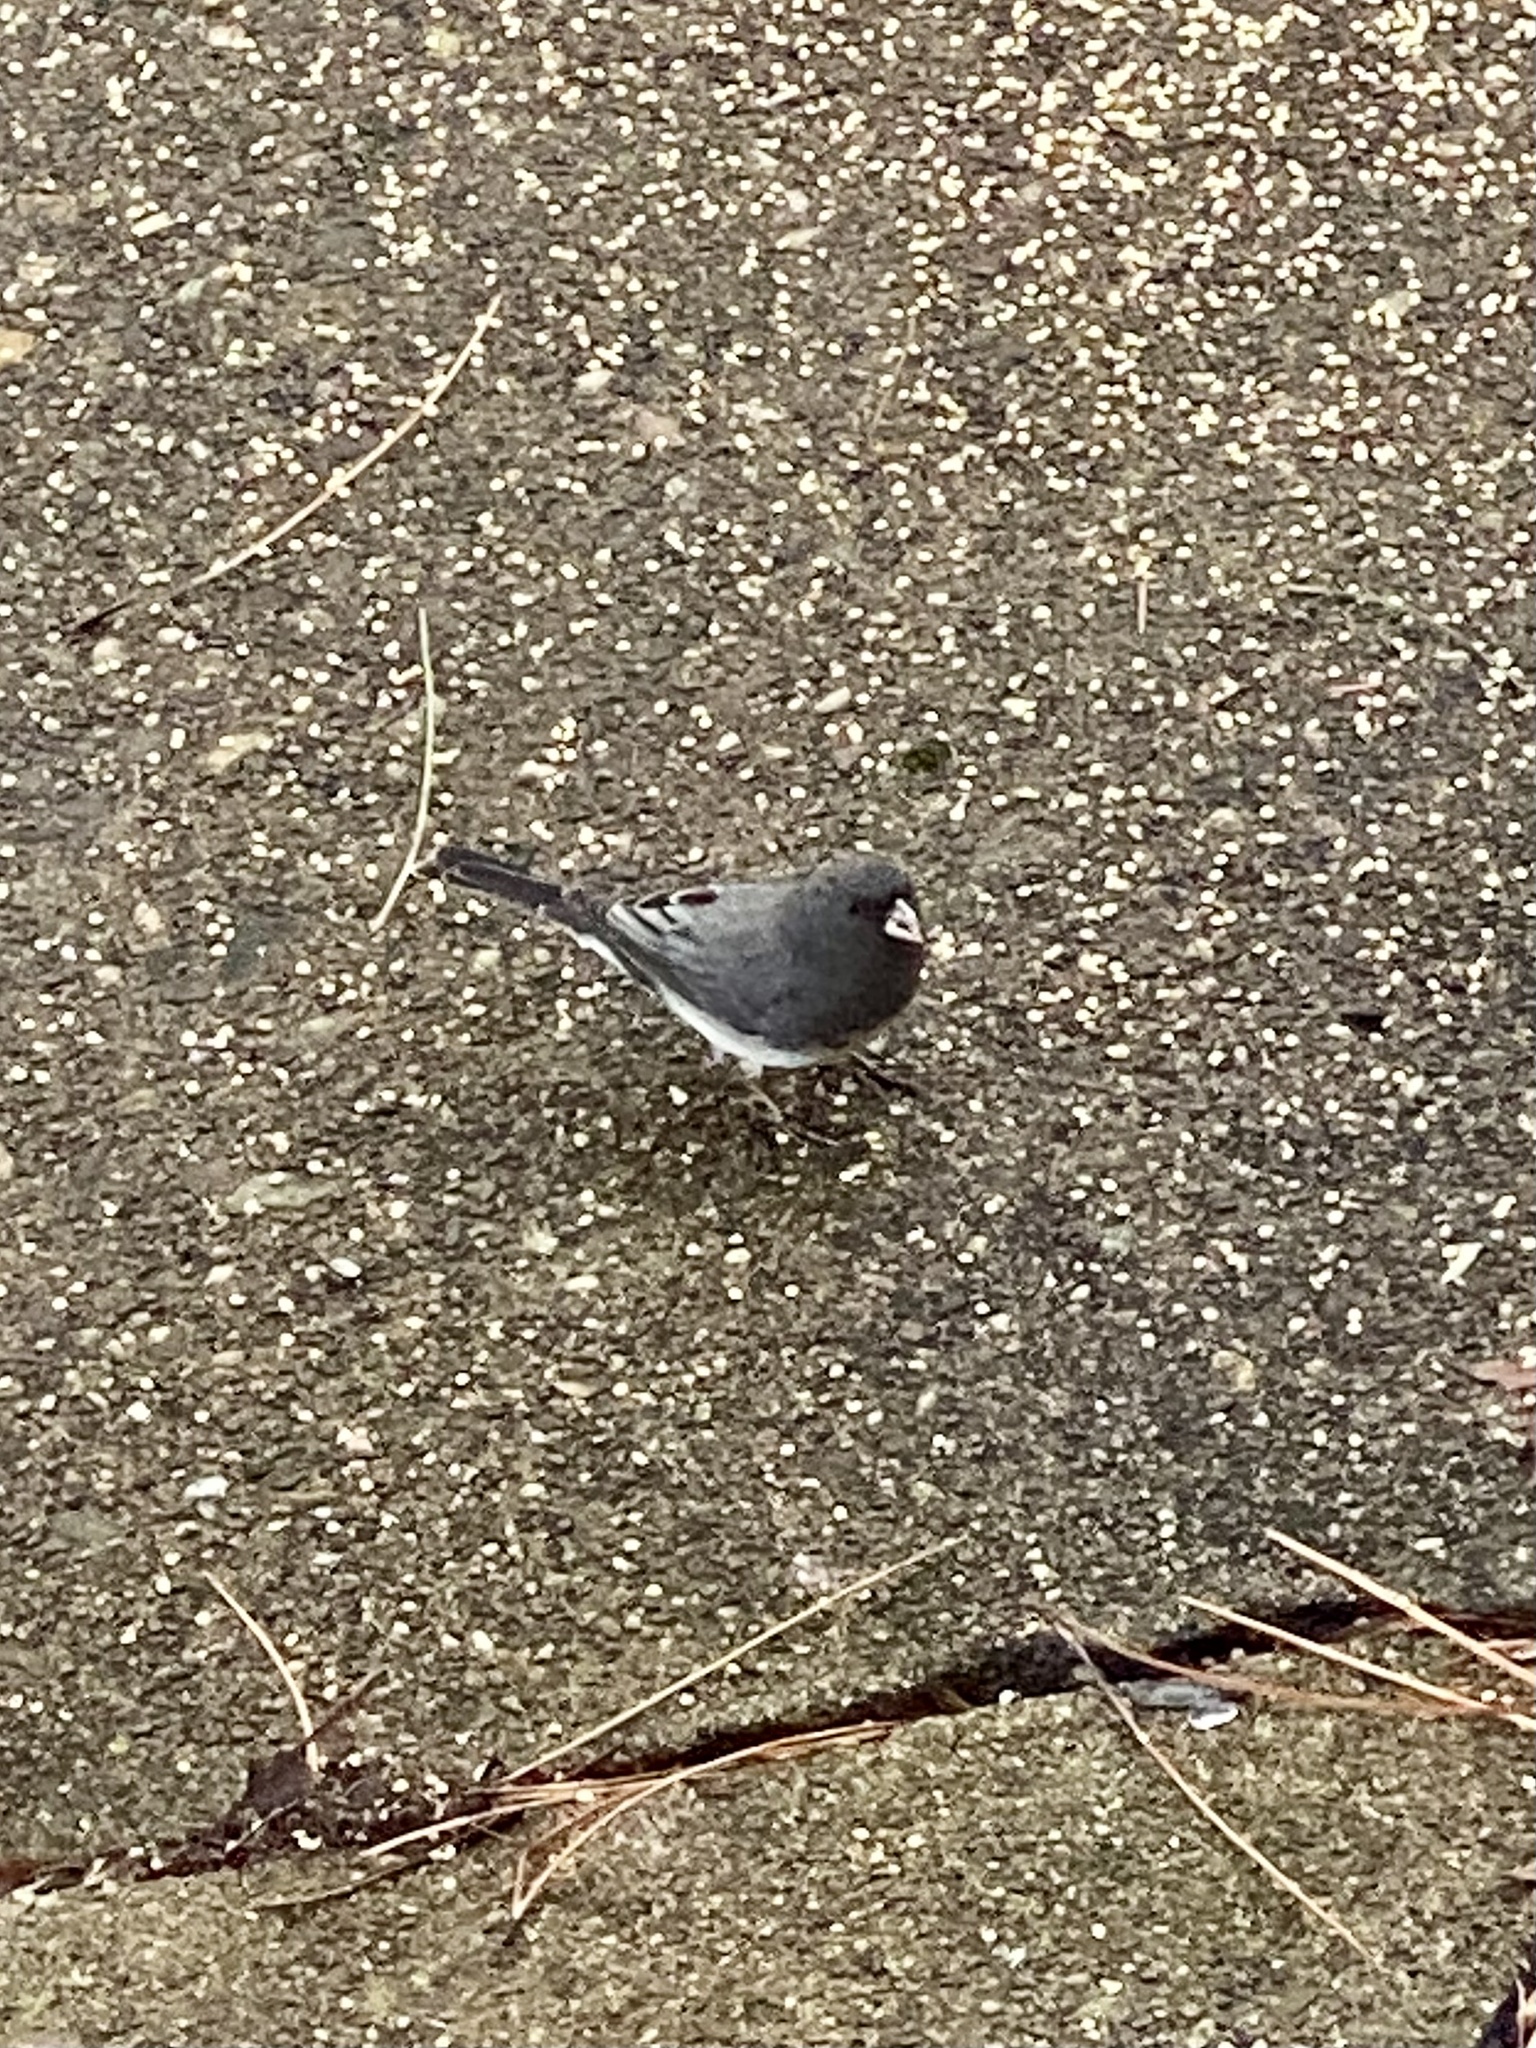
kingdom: Animalia
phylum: Chordata
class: Aves
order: Passeriformes
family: Passerellidae
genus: Junco
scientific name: Junco hyemalis
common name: Dark-eyed junco
